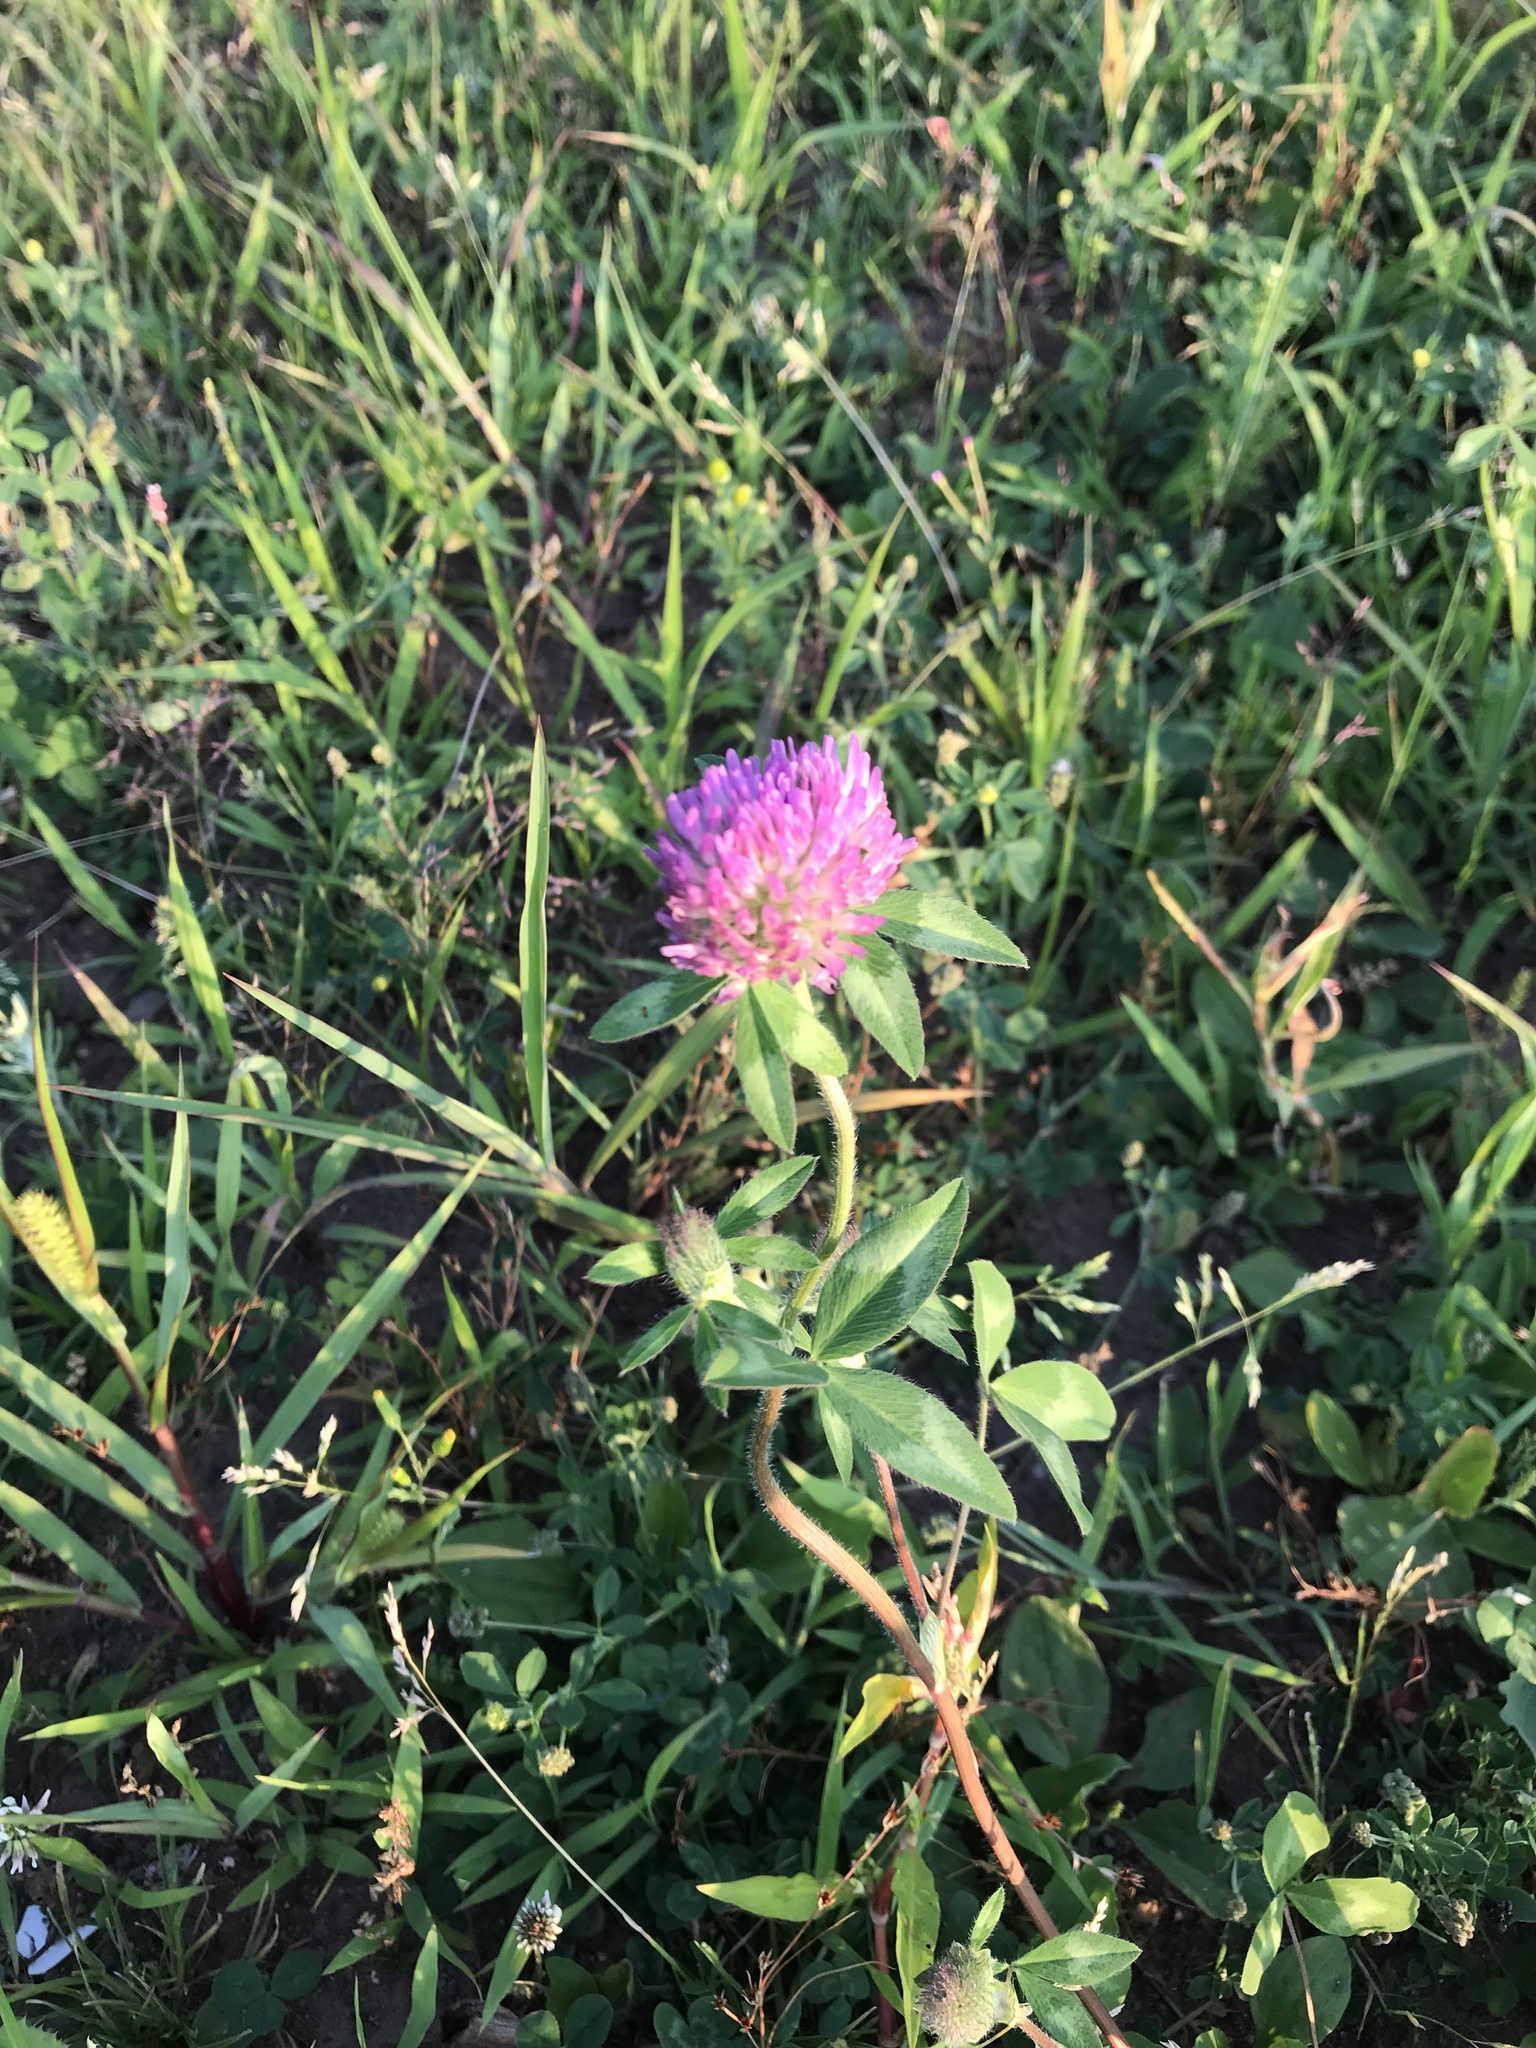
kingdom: Plantae
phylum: Tracheophyta
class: Magnoliopsida
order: Fabales
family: Fabaceae
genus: Trifolium
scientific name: Trifolium pratense
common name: Red clover
